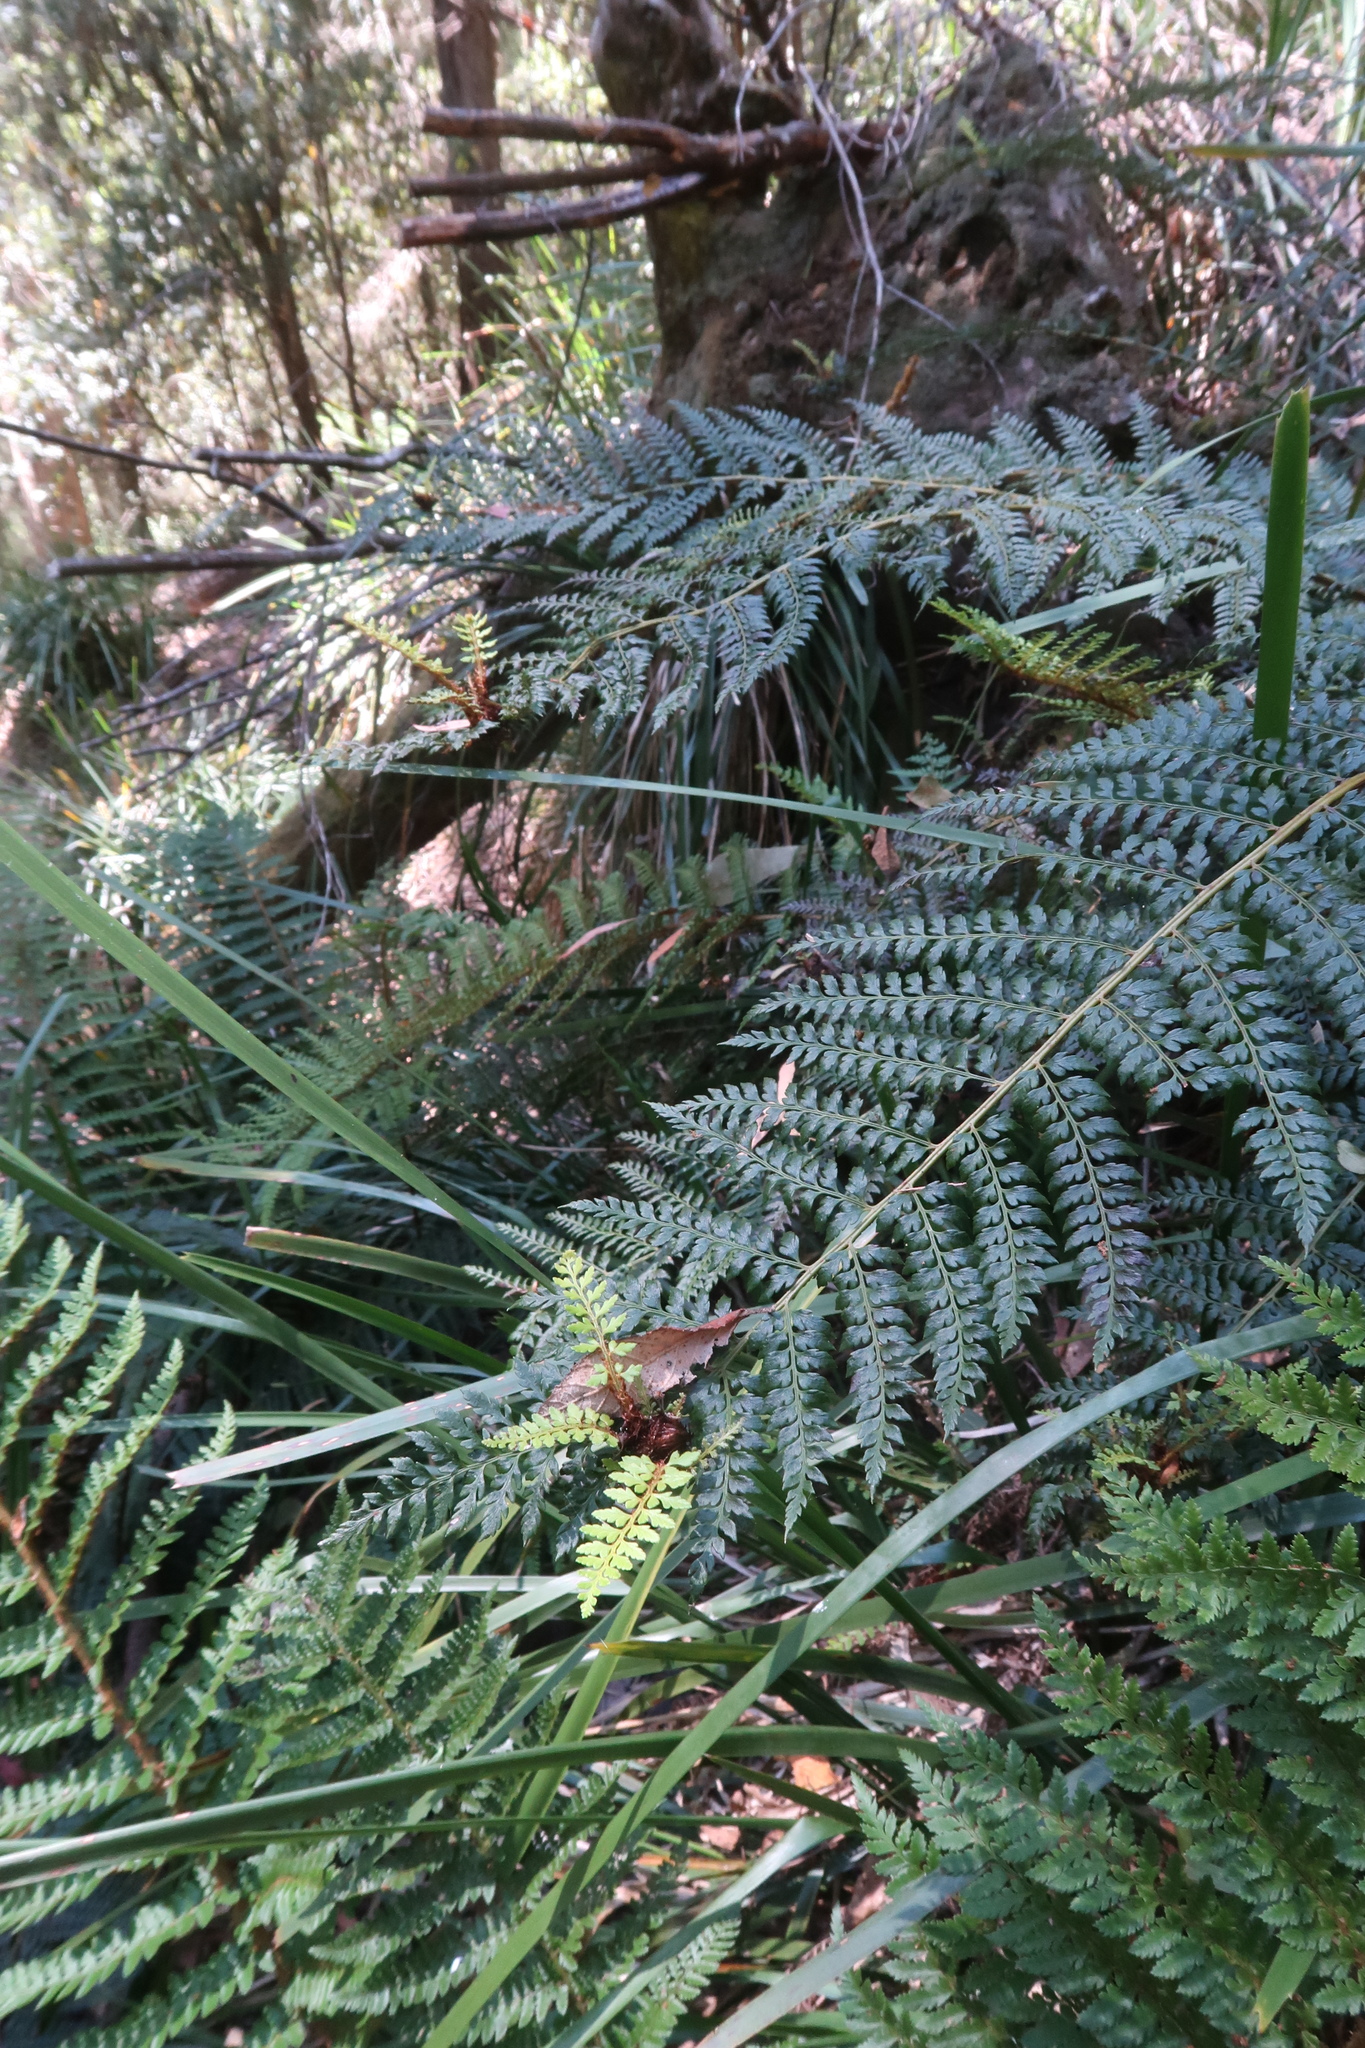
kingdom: Plantae
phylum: Tracheophyta
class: Polypodiopsida
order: Polypodiales
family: Dryopteridaceae
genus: Polystichum
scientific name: Polystichum proliferum
